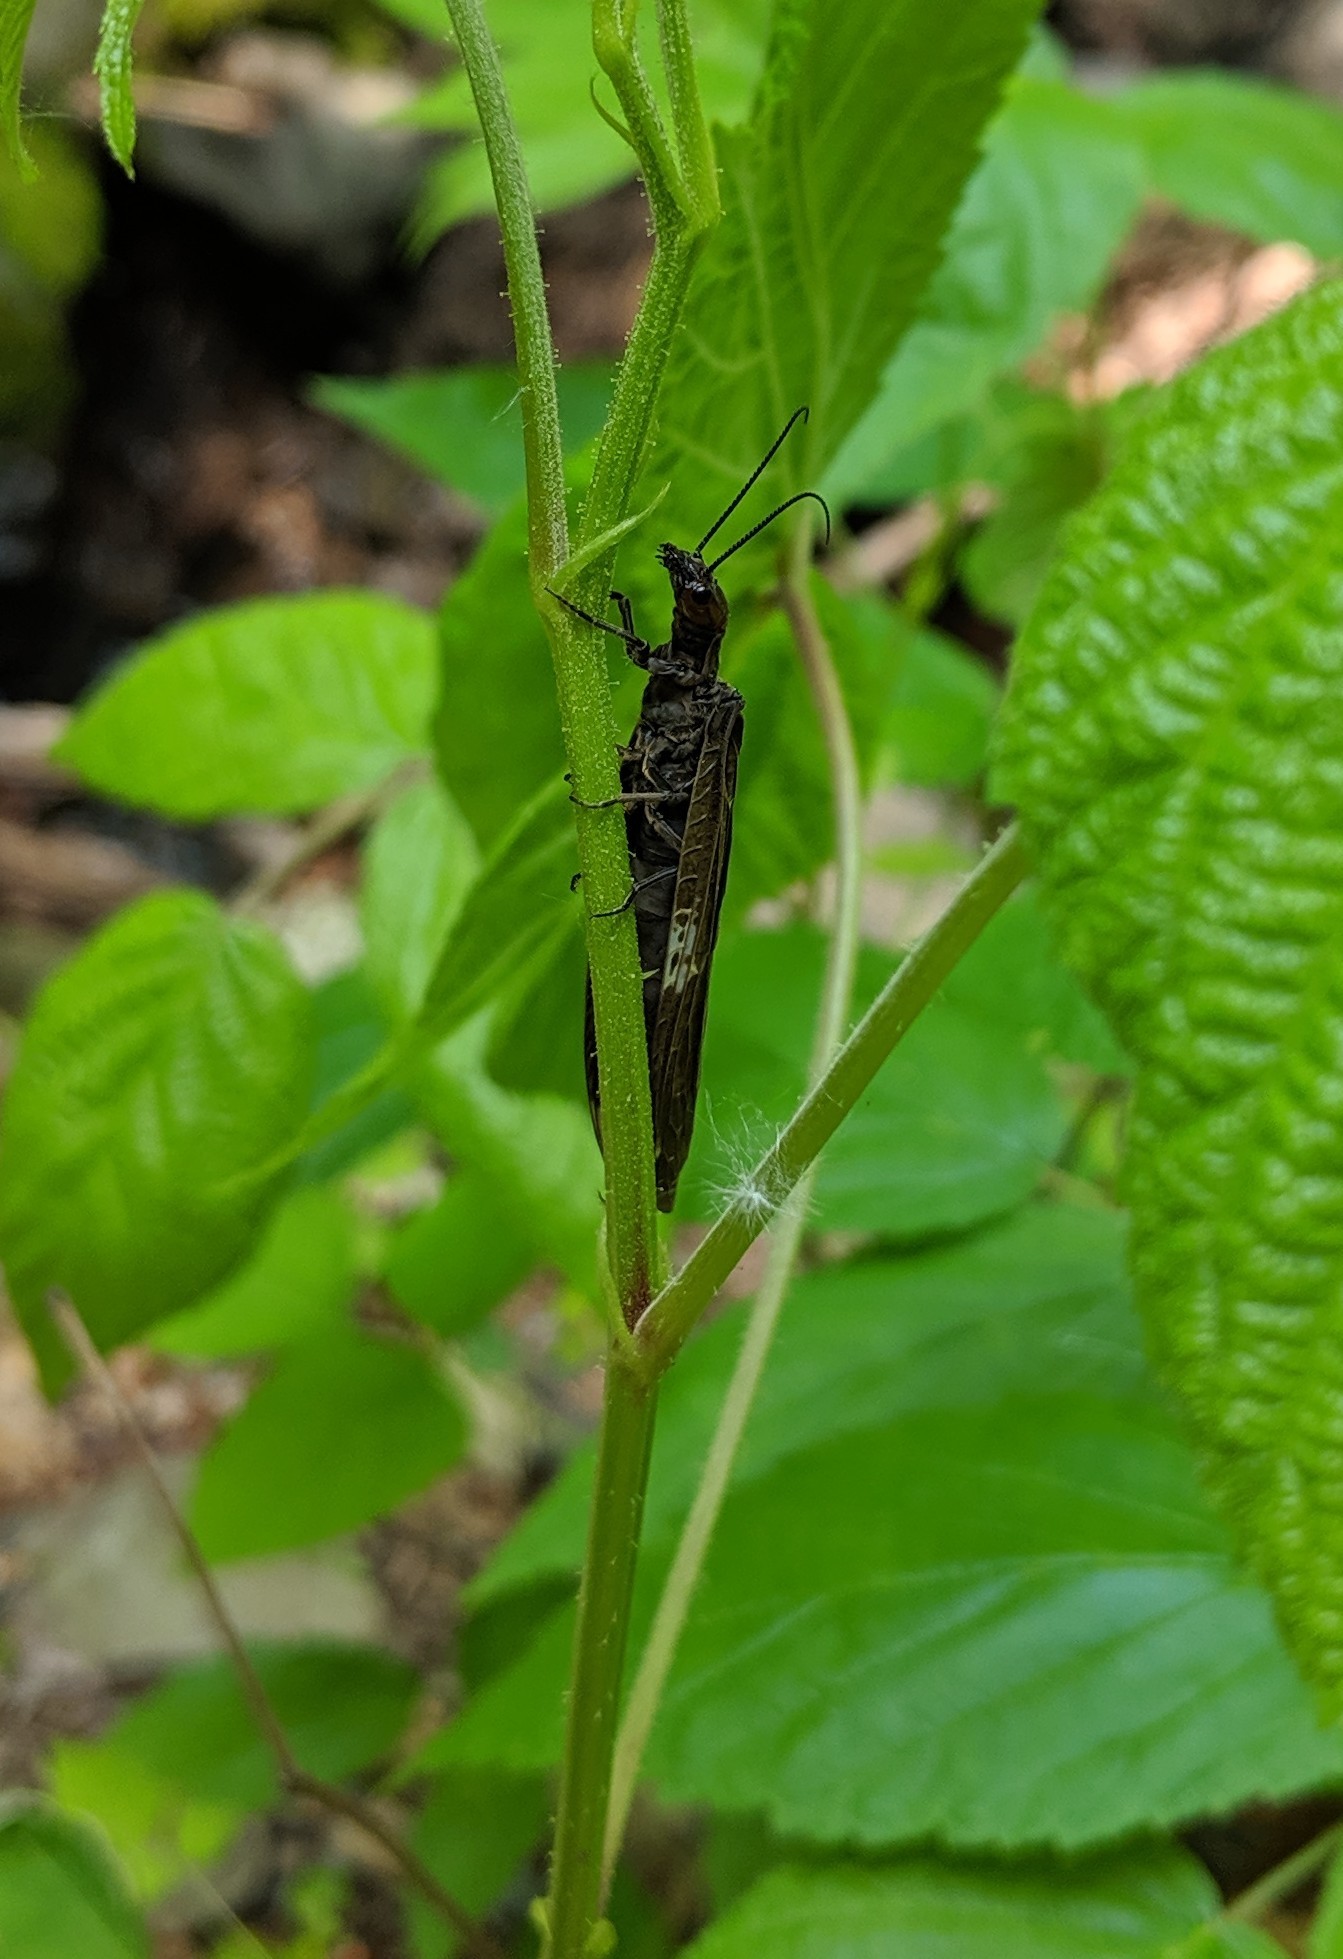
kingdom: Animalia
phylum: Arthropoda
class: Insecta
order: Megaloptera
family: Corydalidae
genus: Nigronia
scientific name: Nigronia serricornis
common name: Serrate dark fishfly
